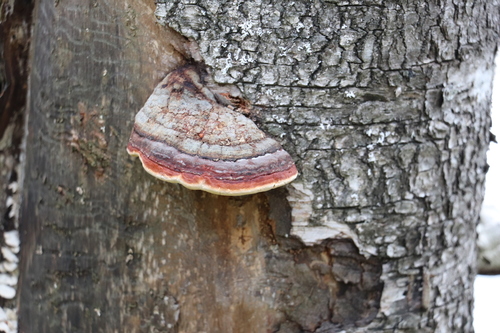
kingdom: Fungi
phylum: Basidiomycota
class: Agaricomycetes
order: Polyporales
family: Fomitopsidaceae
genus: Fomitopsis
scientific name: Fomitopsis pinicola
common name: Red-belted bracket
